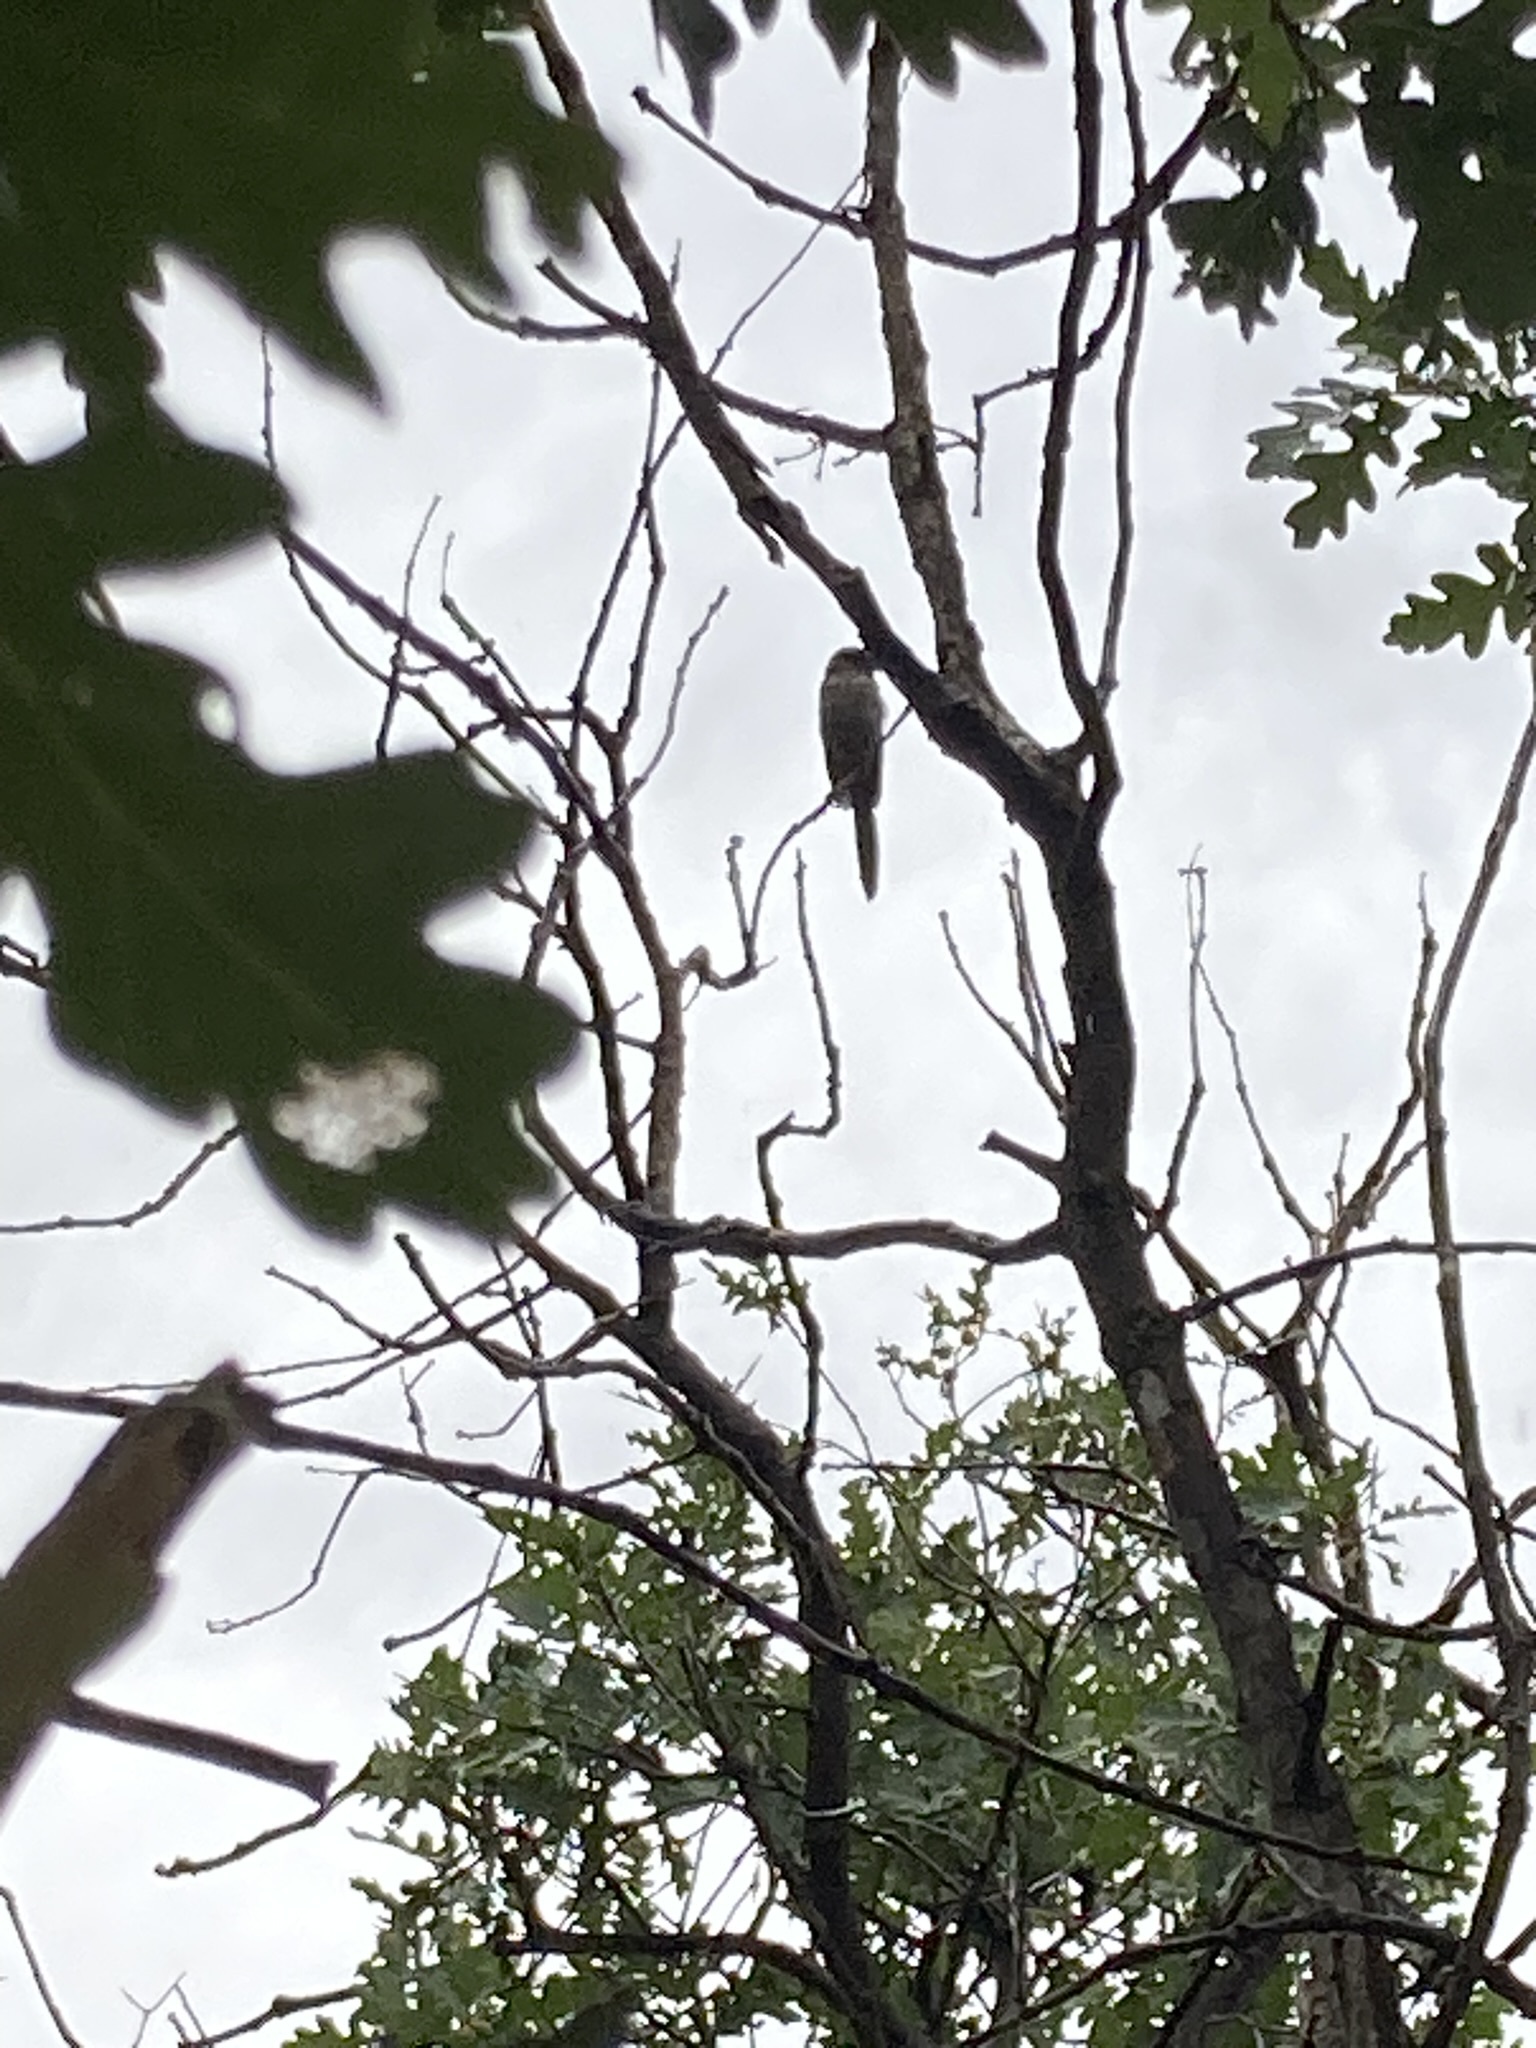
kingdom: Animalia
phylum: Chordata
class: Aves
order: Passeriformes
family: Corvidae
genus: Aphelocoma
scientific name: Aphelocoma woodhouseii
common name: Woodhouse's scrub-jay
